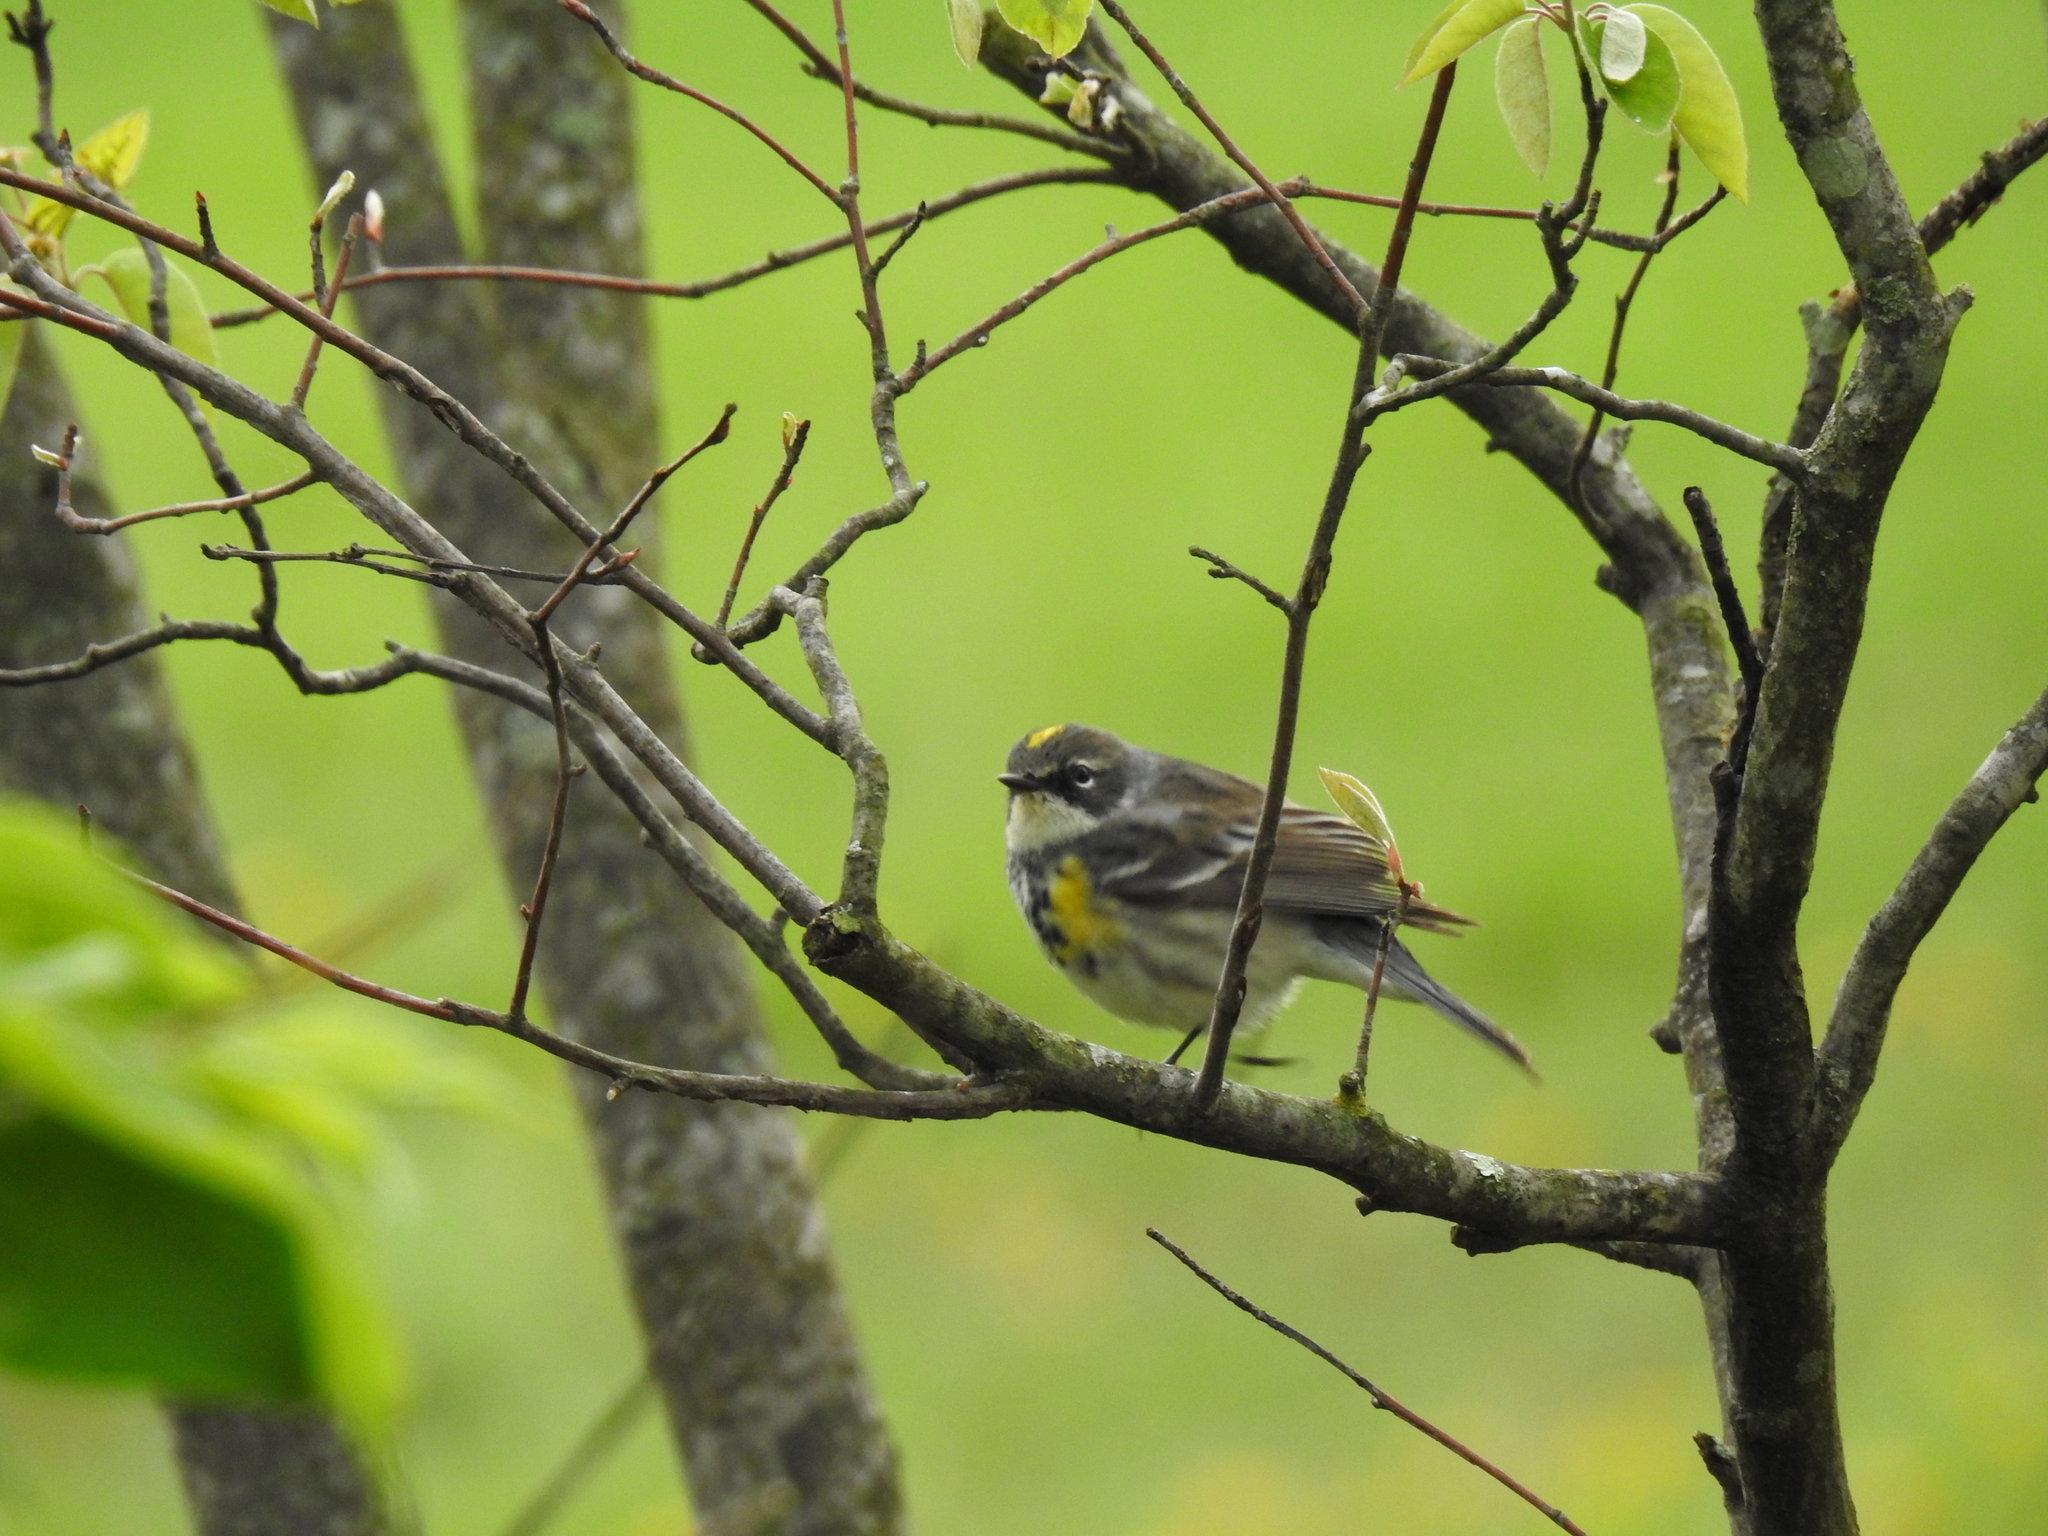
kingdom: Animalia
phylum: Chordata
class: Aves
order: Passeriformes
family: Parulidae
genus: Setophaga
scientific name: Setophaga coronata
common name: Myrtle warbler
